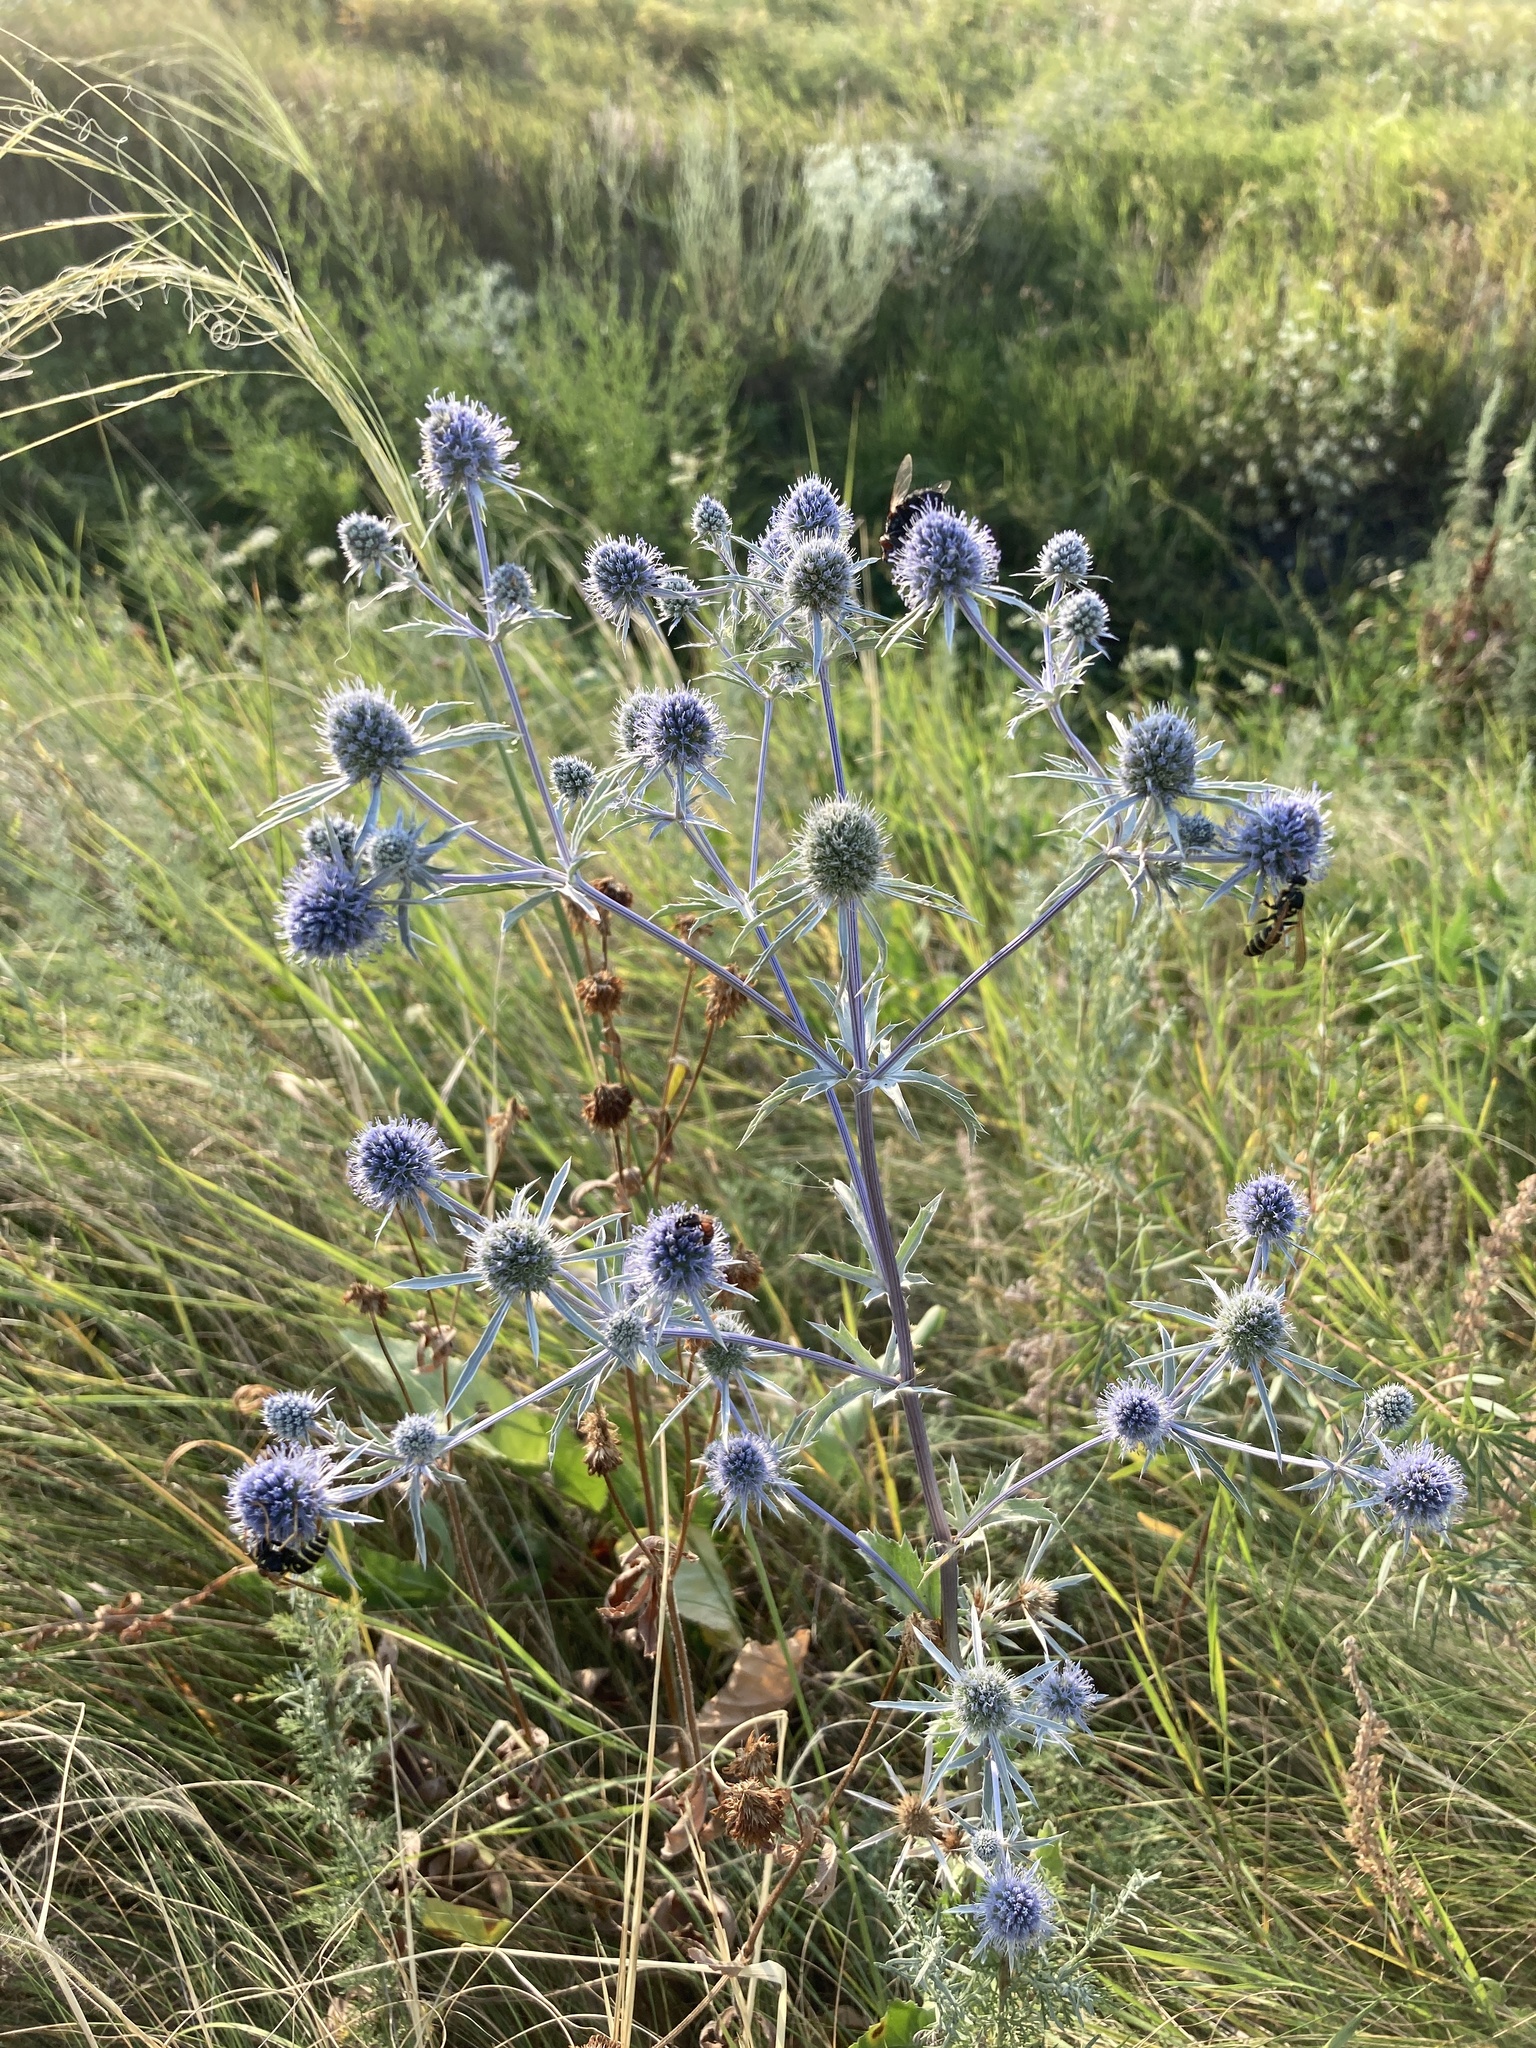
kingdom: Plantae
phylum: Tracheophyta
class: Magnoliopsida
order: Apiales
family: Apiaceae
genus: Eryngium
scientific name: Eryngium planum
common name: Blue eryngo
